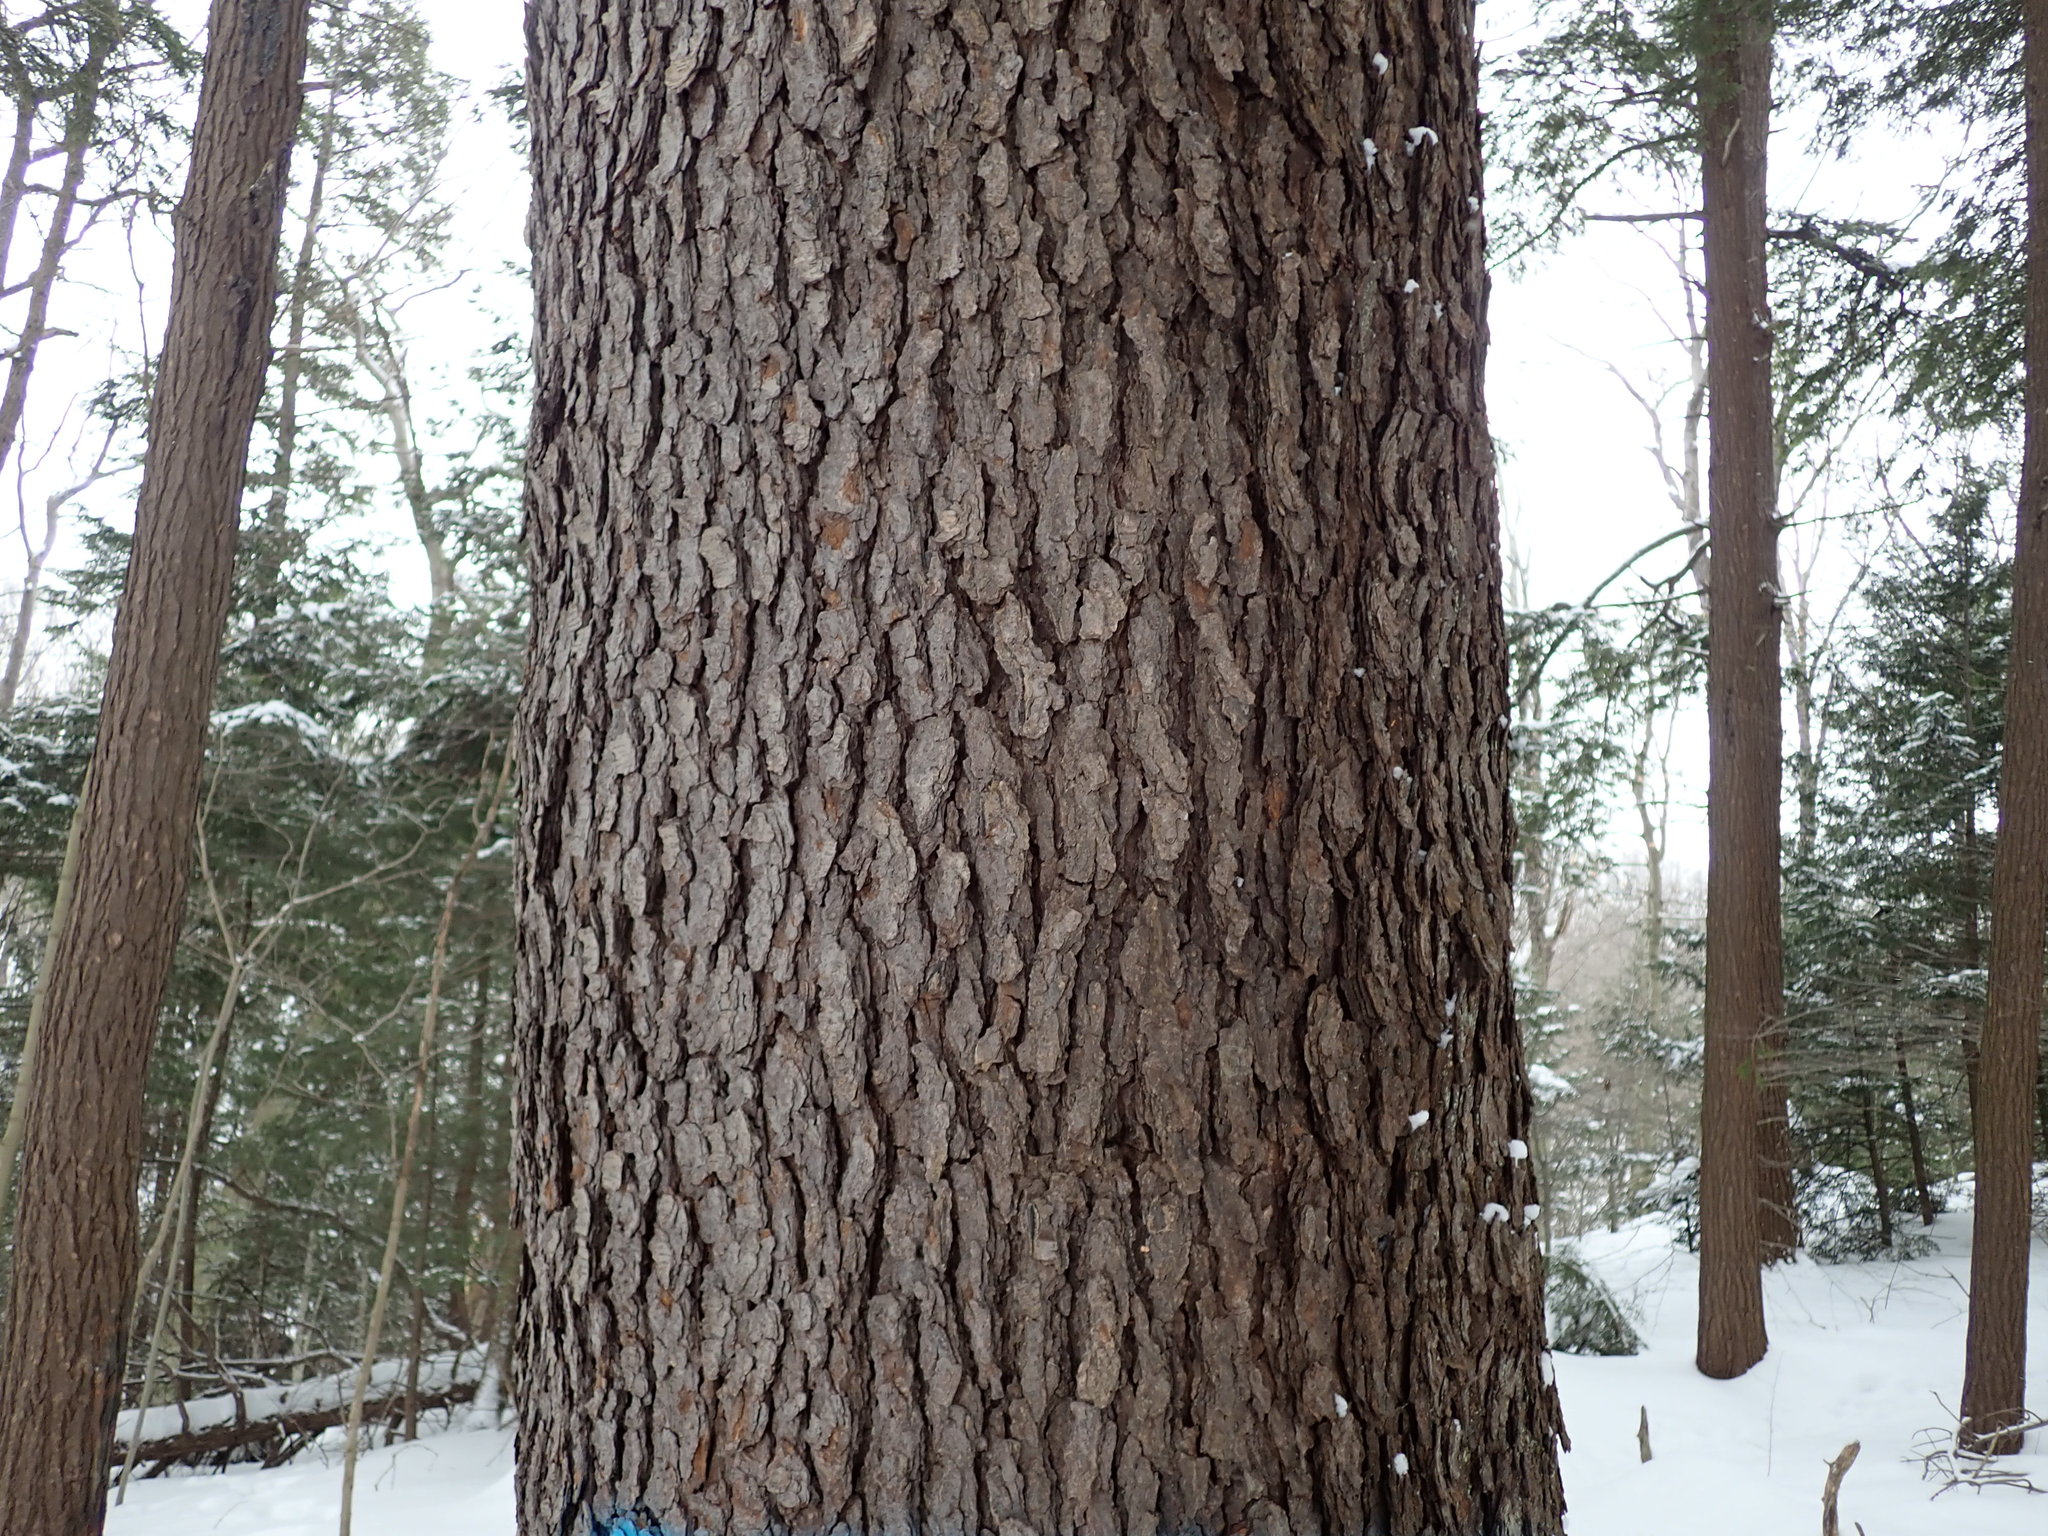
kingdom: Plantae
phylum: Tracheophyta
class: Magnoliopsida
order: Rosales
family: Rosaceae
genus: Prunus
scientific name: Prunus serotina
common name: Black cherry
